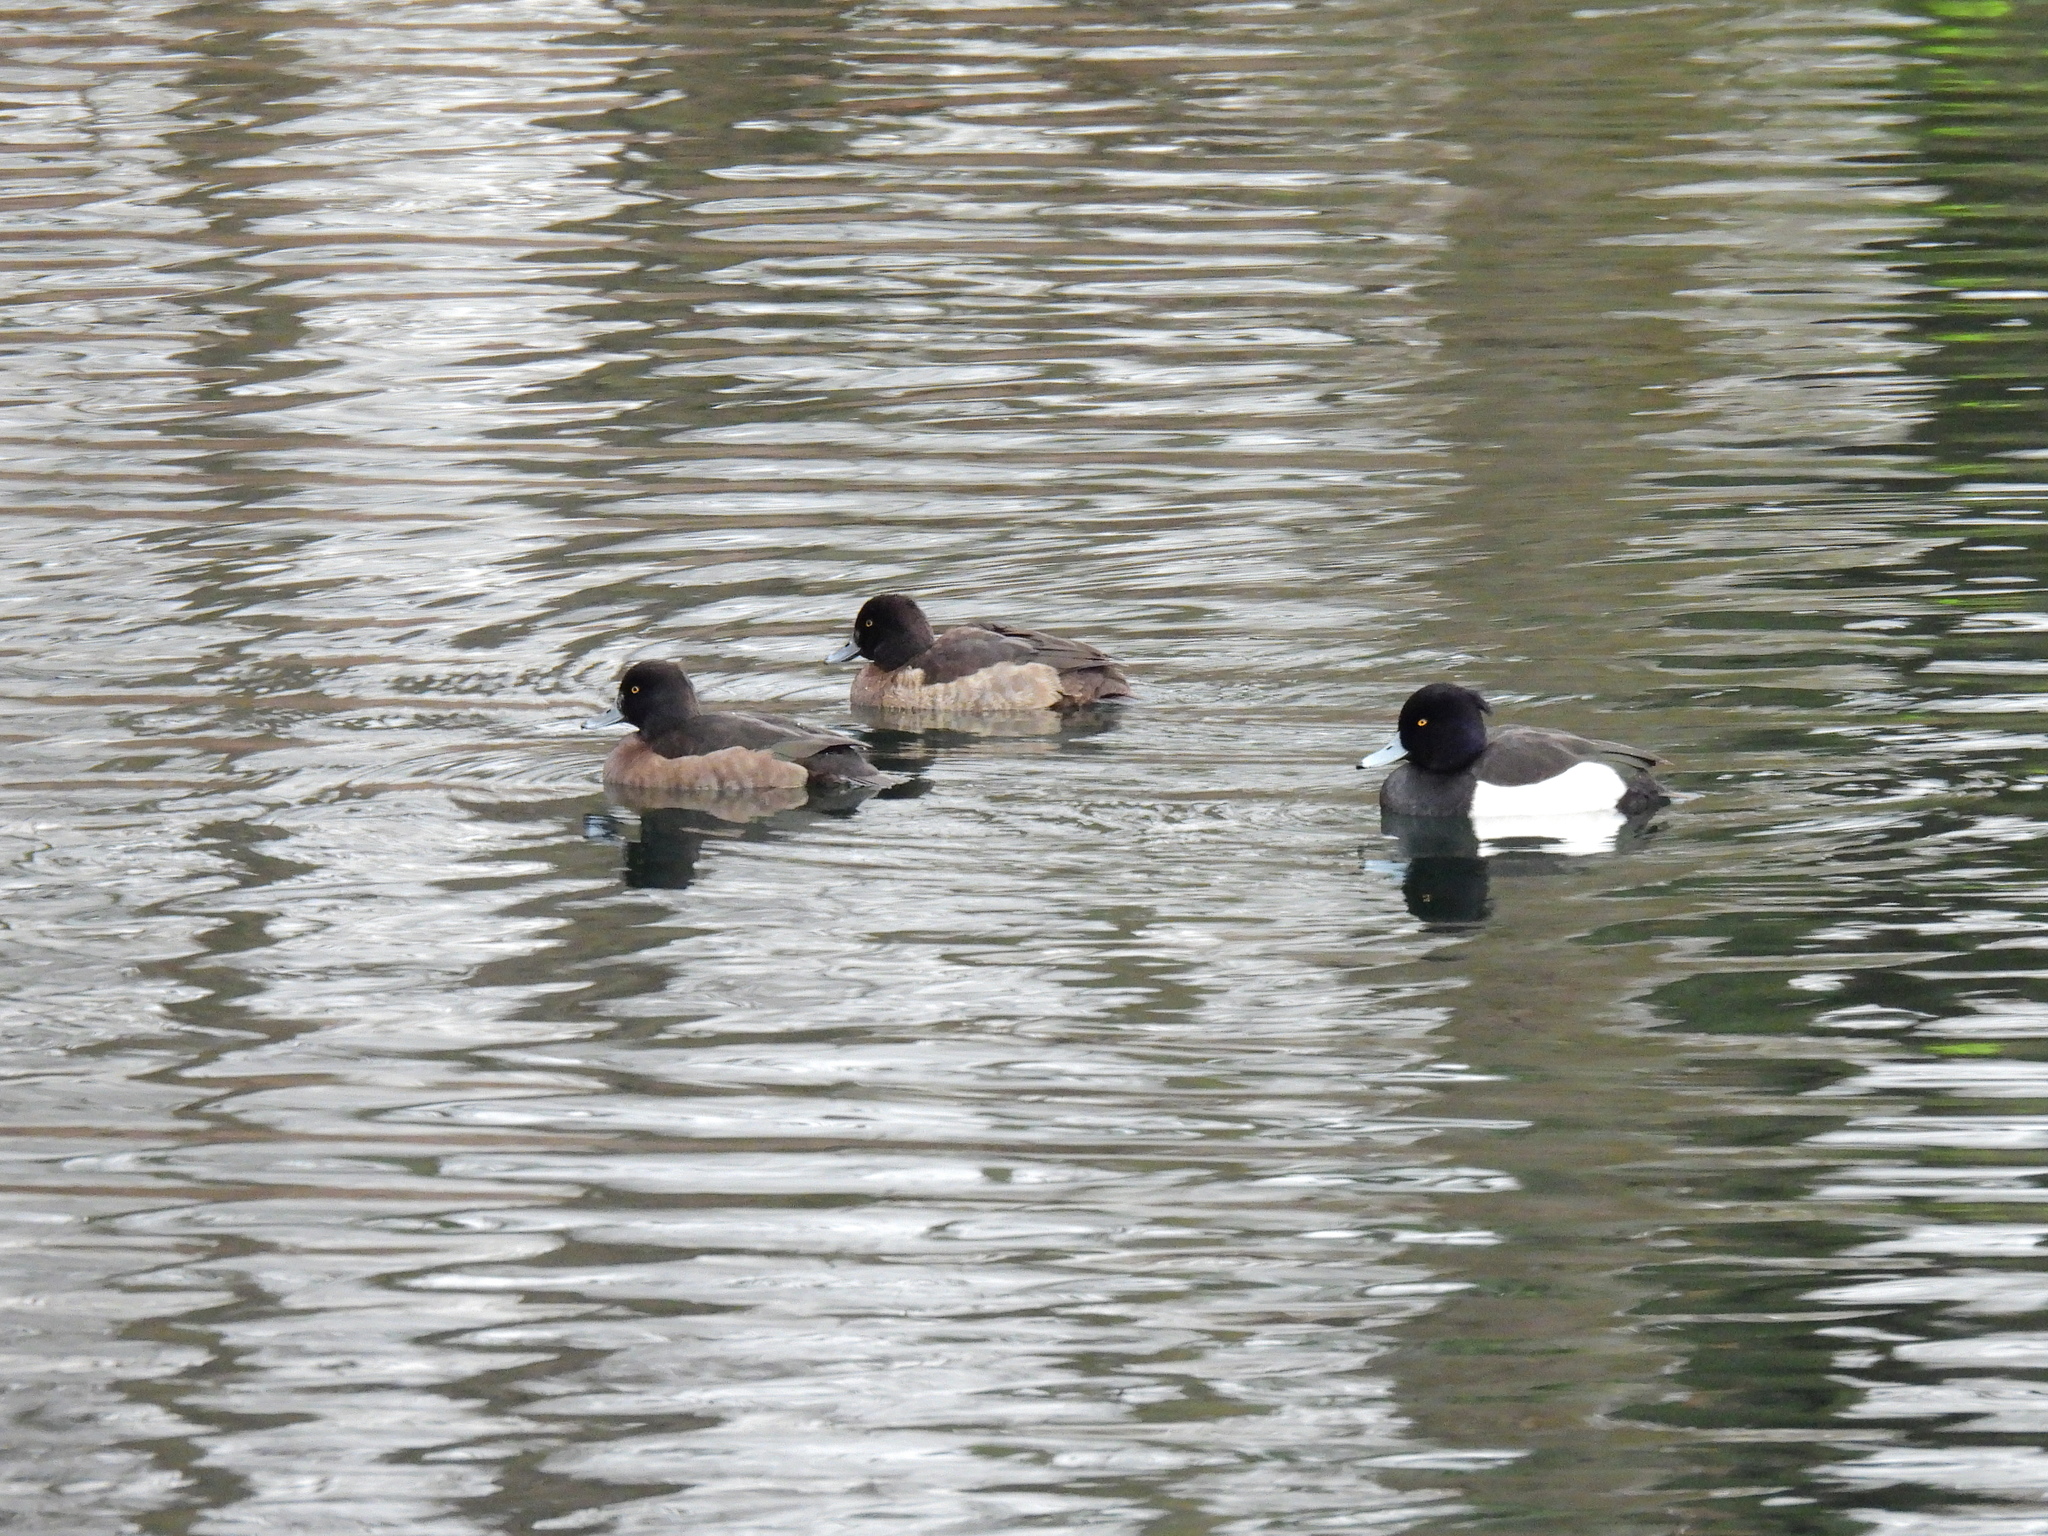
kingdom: Animalia
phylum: Chordata
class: Aves
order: Anseriformes
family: Anatidae
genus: Aythya
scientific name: Aythya fuligula
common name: Tufted duck
